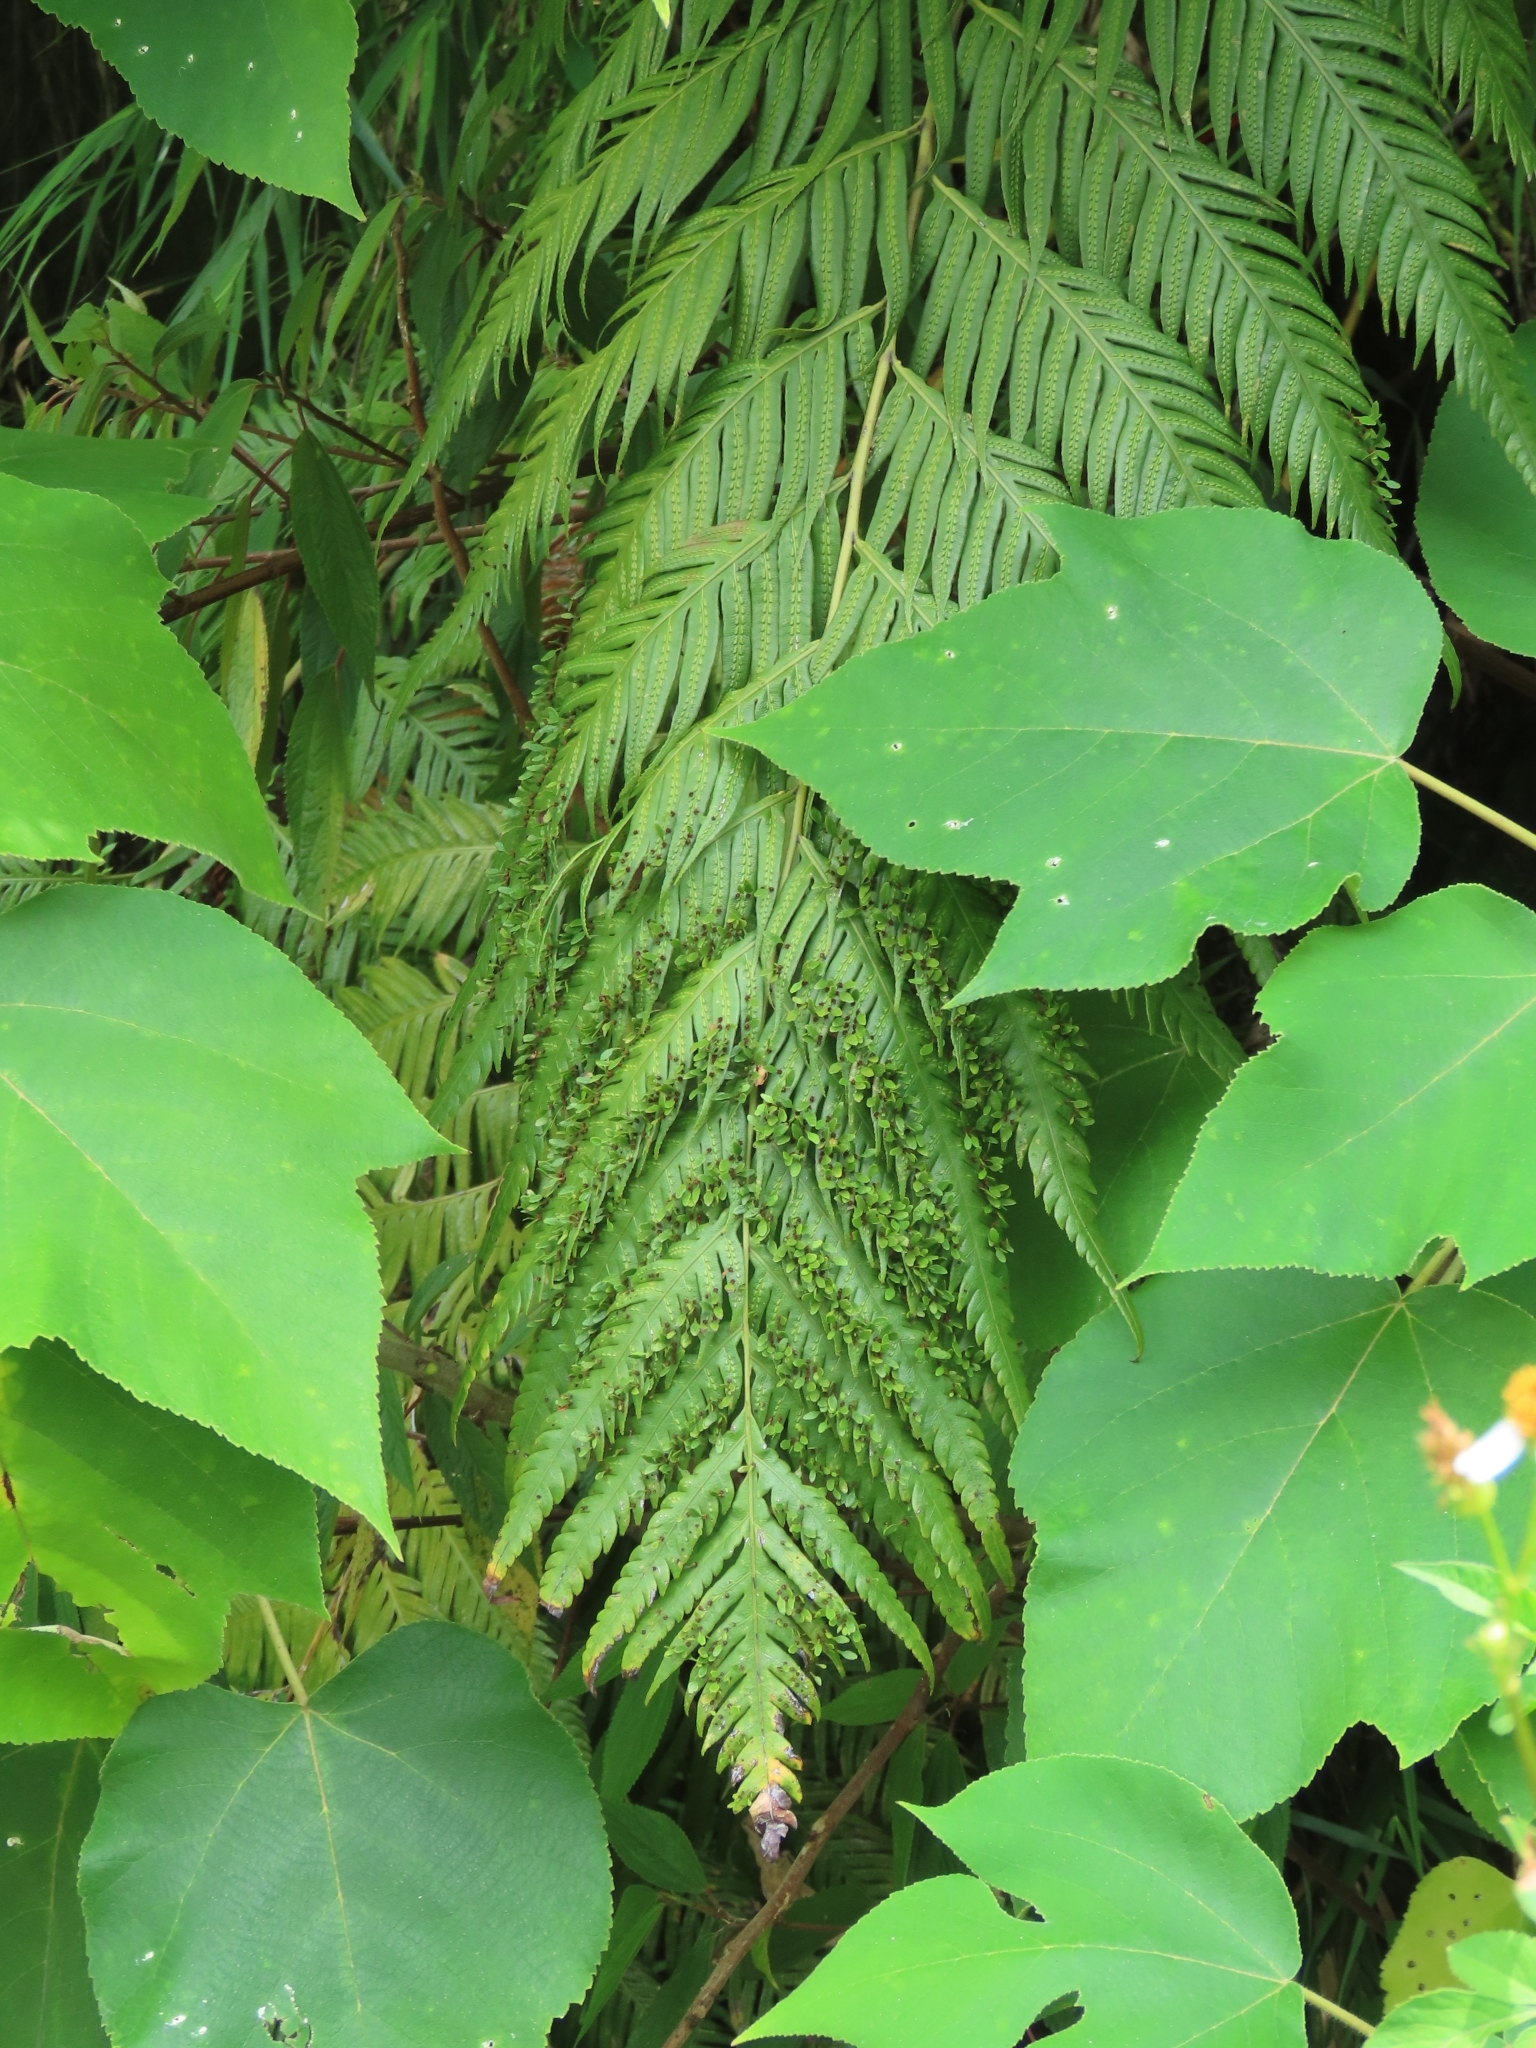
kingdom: Plantae
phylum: Tracheophyta
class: Polypodiopsida
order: Polypodiales
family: Blechnaceae
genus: Woodwardia
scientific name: Woodwardia prolifera
